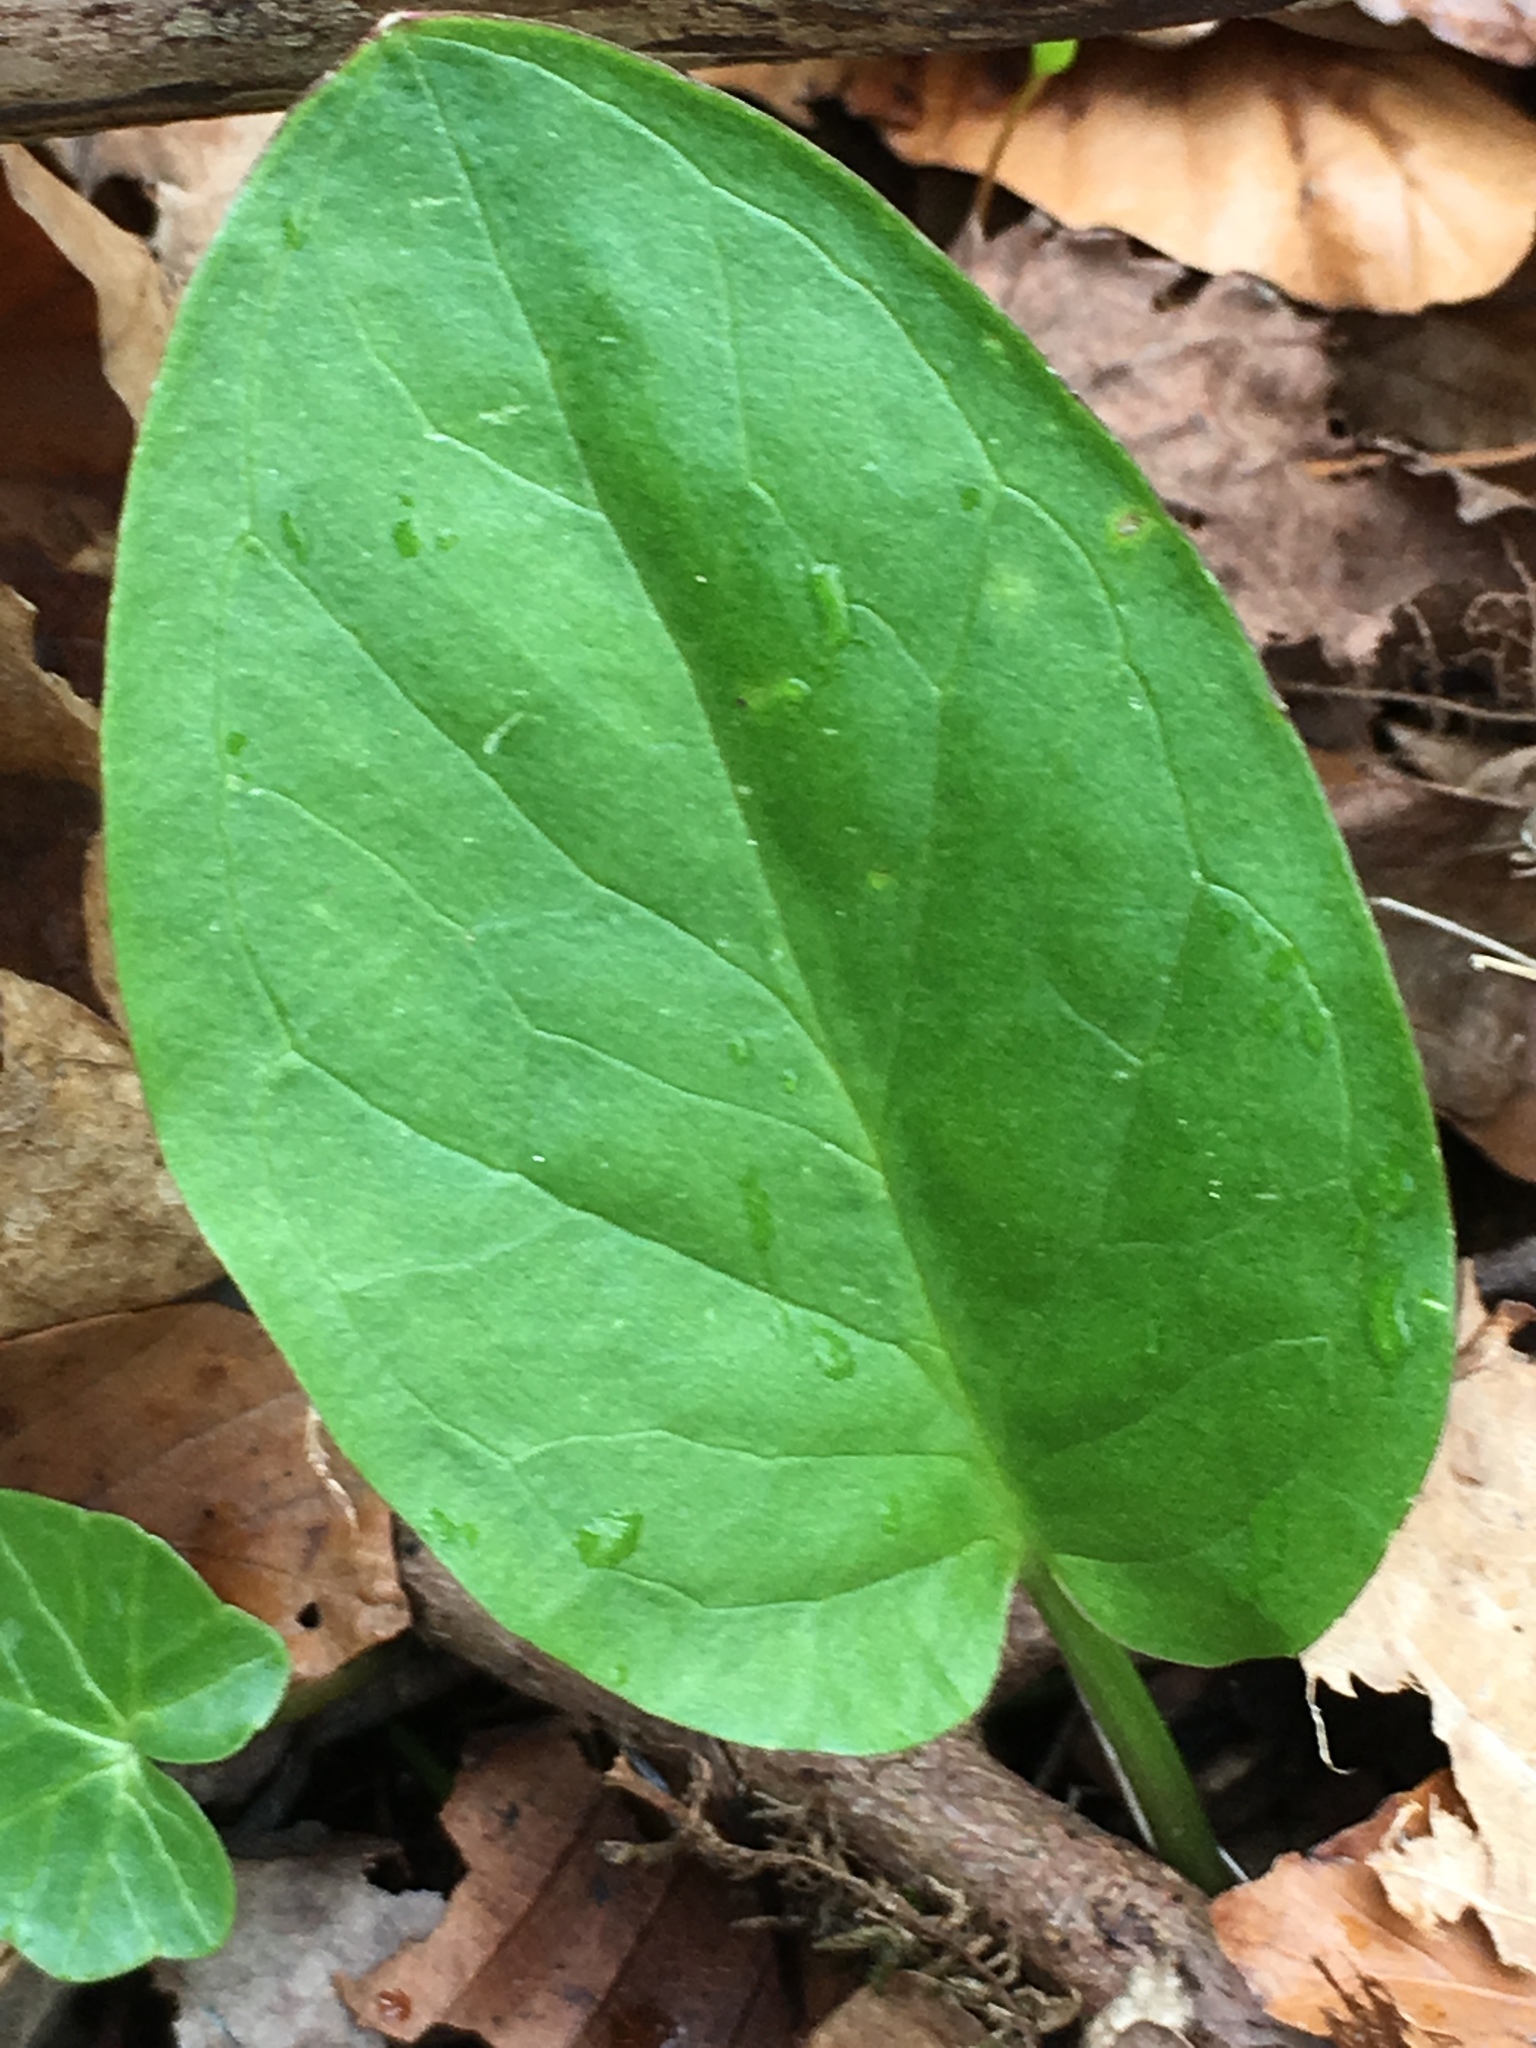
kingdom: Plantae
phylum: Tracheophyta
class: Liliopsida
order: Alismatales
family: Araceae
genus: Arum
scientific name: Arum maculatum
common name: Lords-and-ladies
